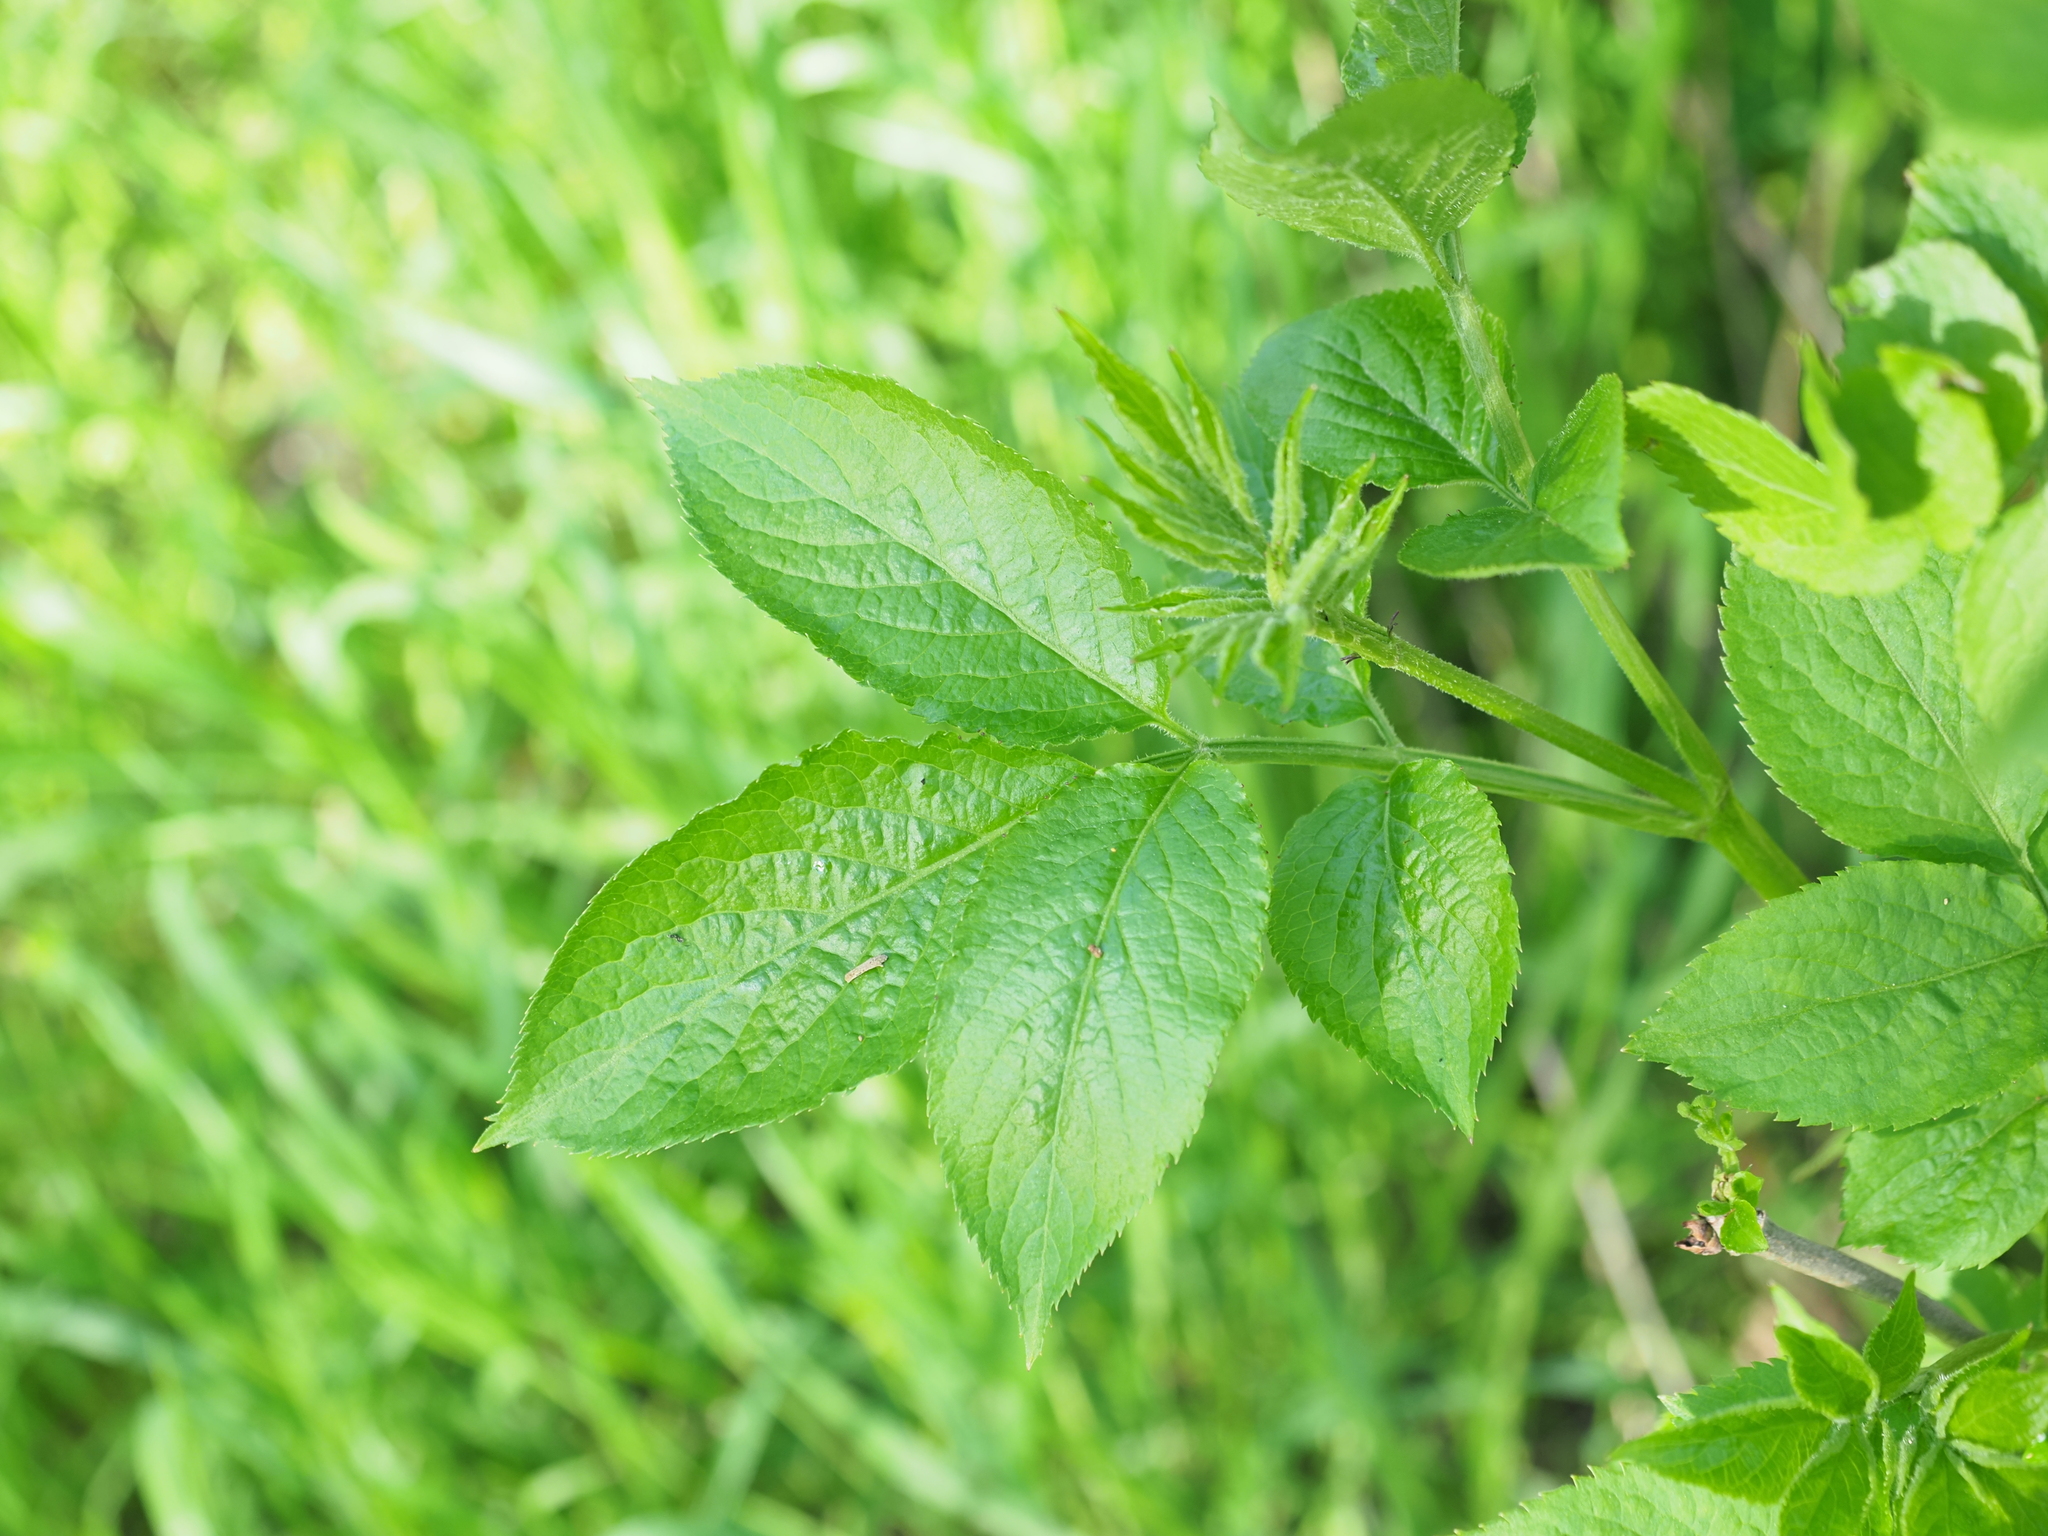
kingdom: Plantae
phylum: Tracheophyta
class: Magnoliopsida
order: Dipsacales
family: Viburnaceae
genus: Sambucus
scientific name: Sambucus nigra
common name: Elder
